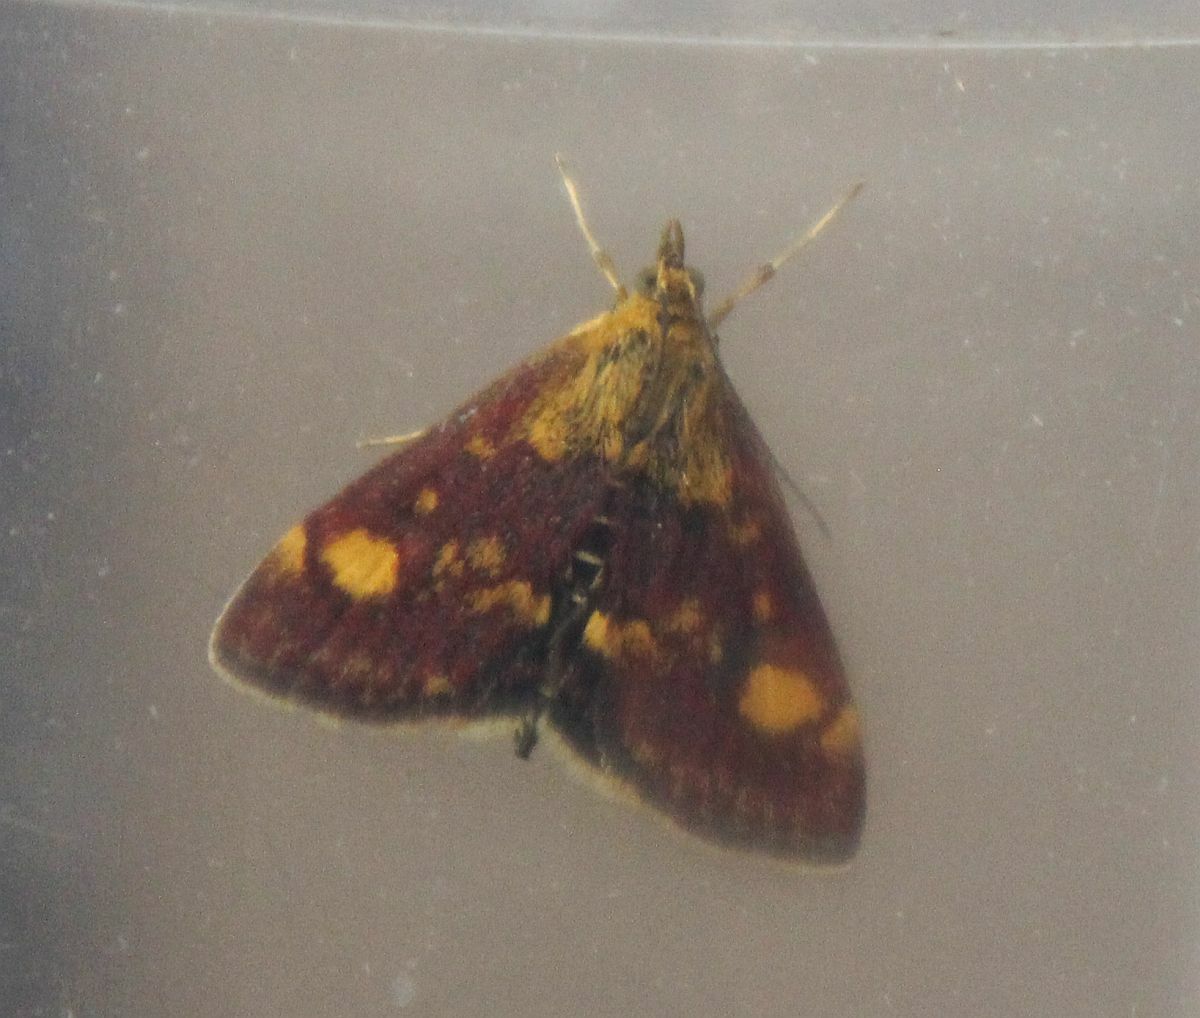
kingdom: Animalia
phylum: Arthropoda
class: Insecta
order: Lepidoptera
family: Crambidae
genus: Pyrausta
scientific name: Pyrausta aurata
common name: Small purple & gold
